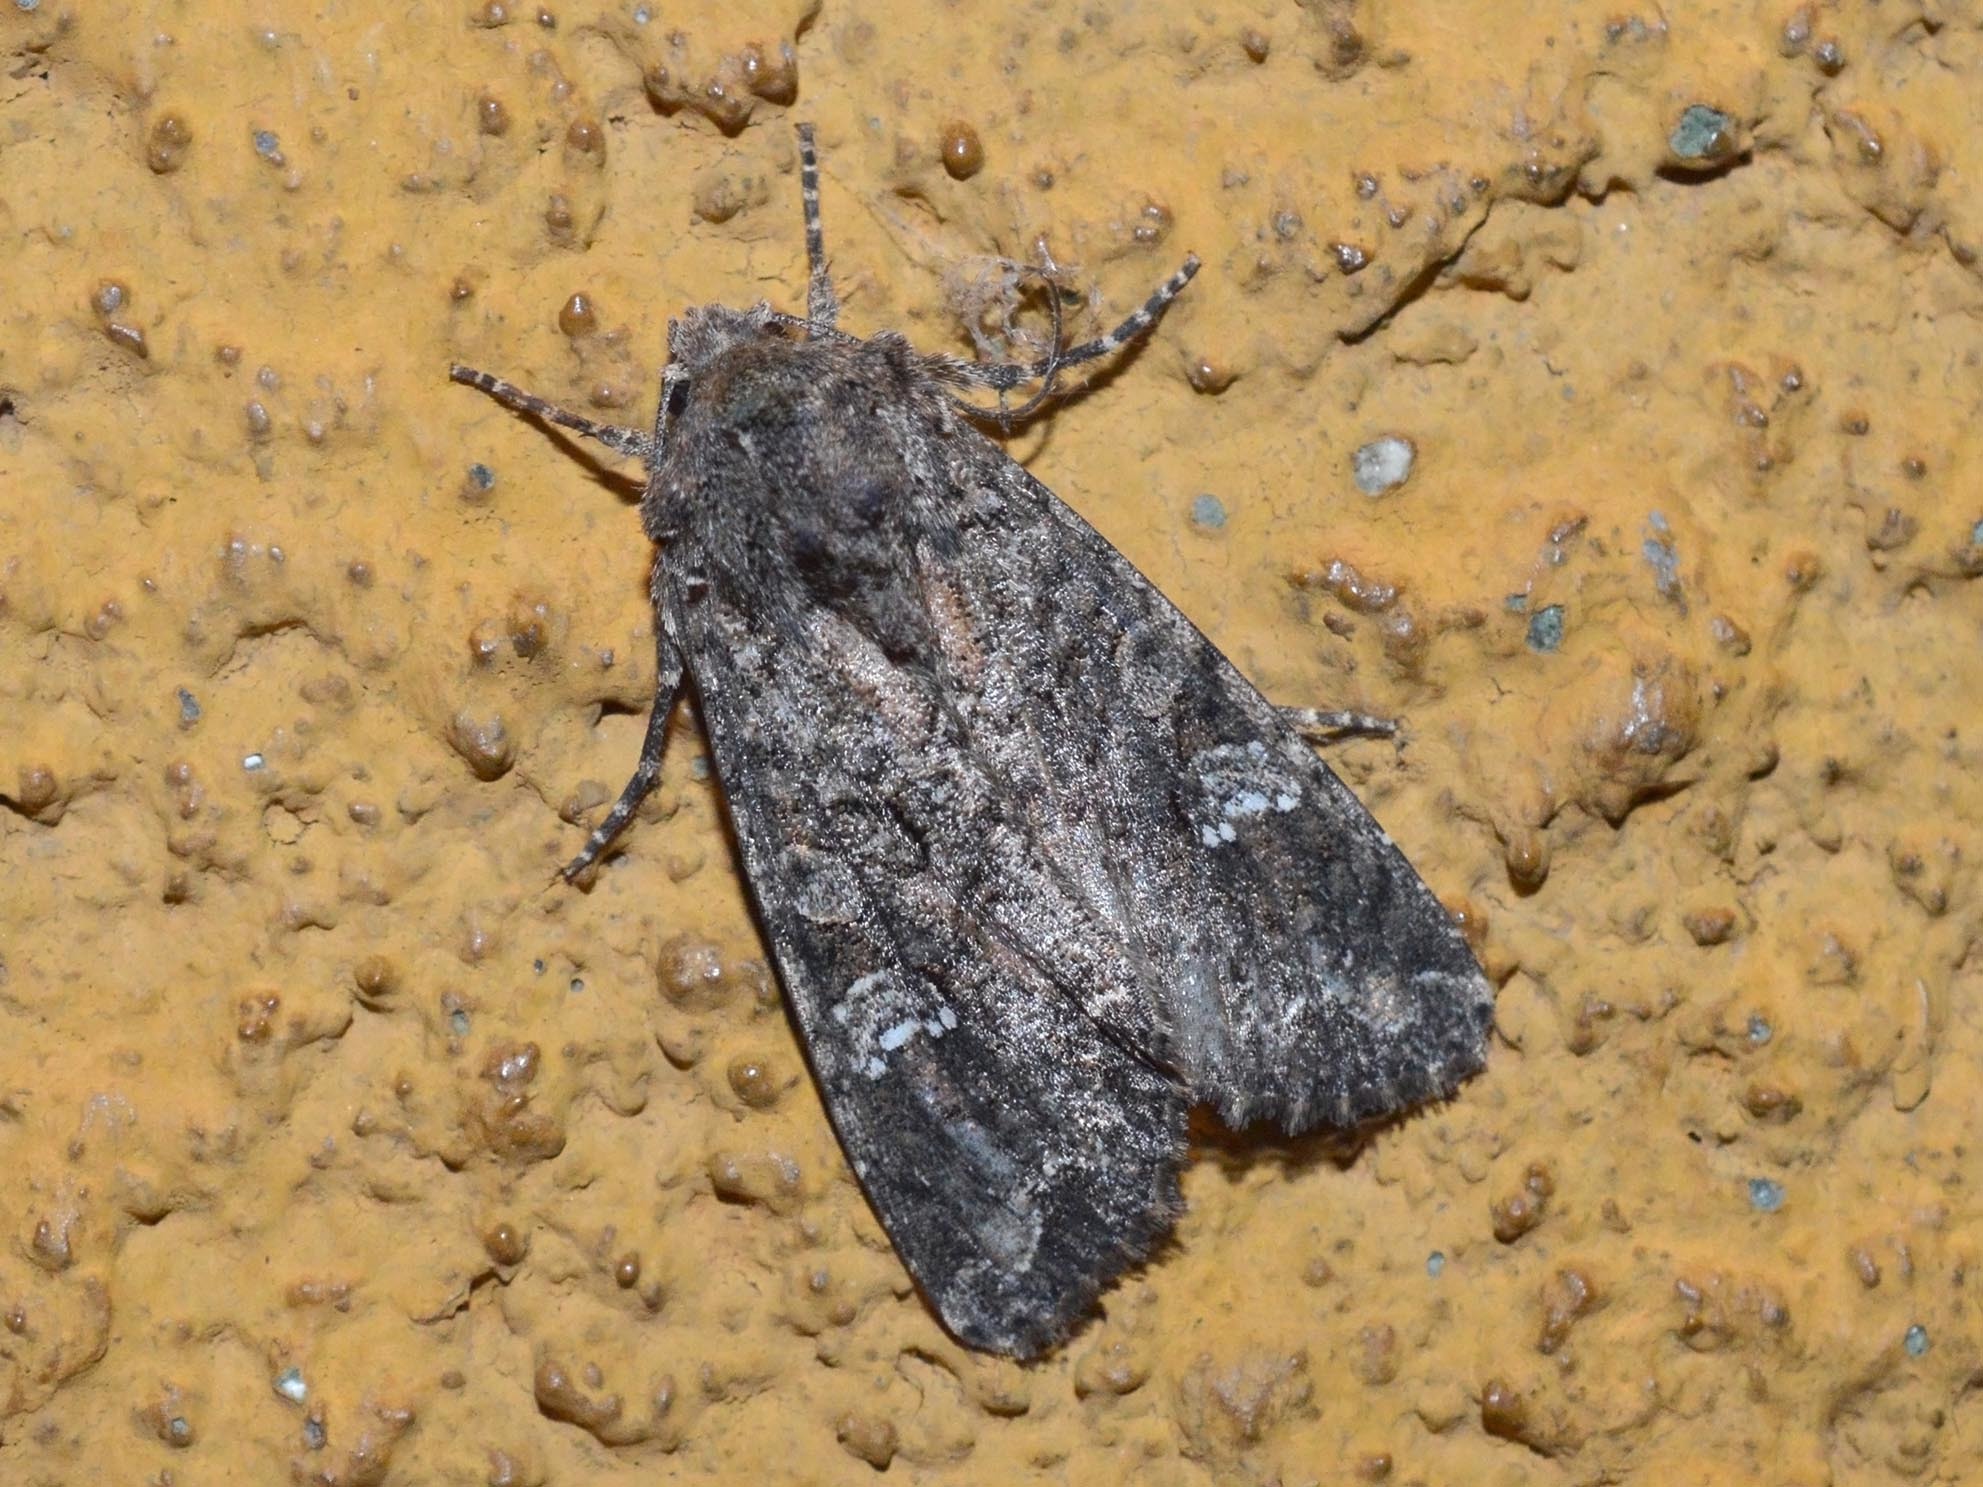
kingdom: Animalia
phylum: Arthropoda
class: Insecta
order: Lepidoptera
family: Noctuidae
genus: Mamestra
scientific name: Mamestra brassicae
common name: Cabbage moth
